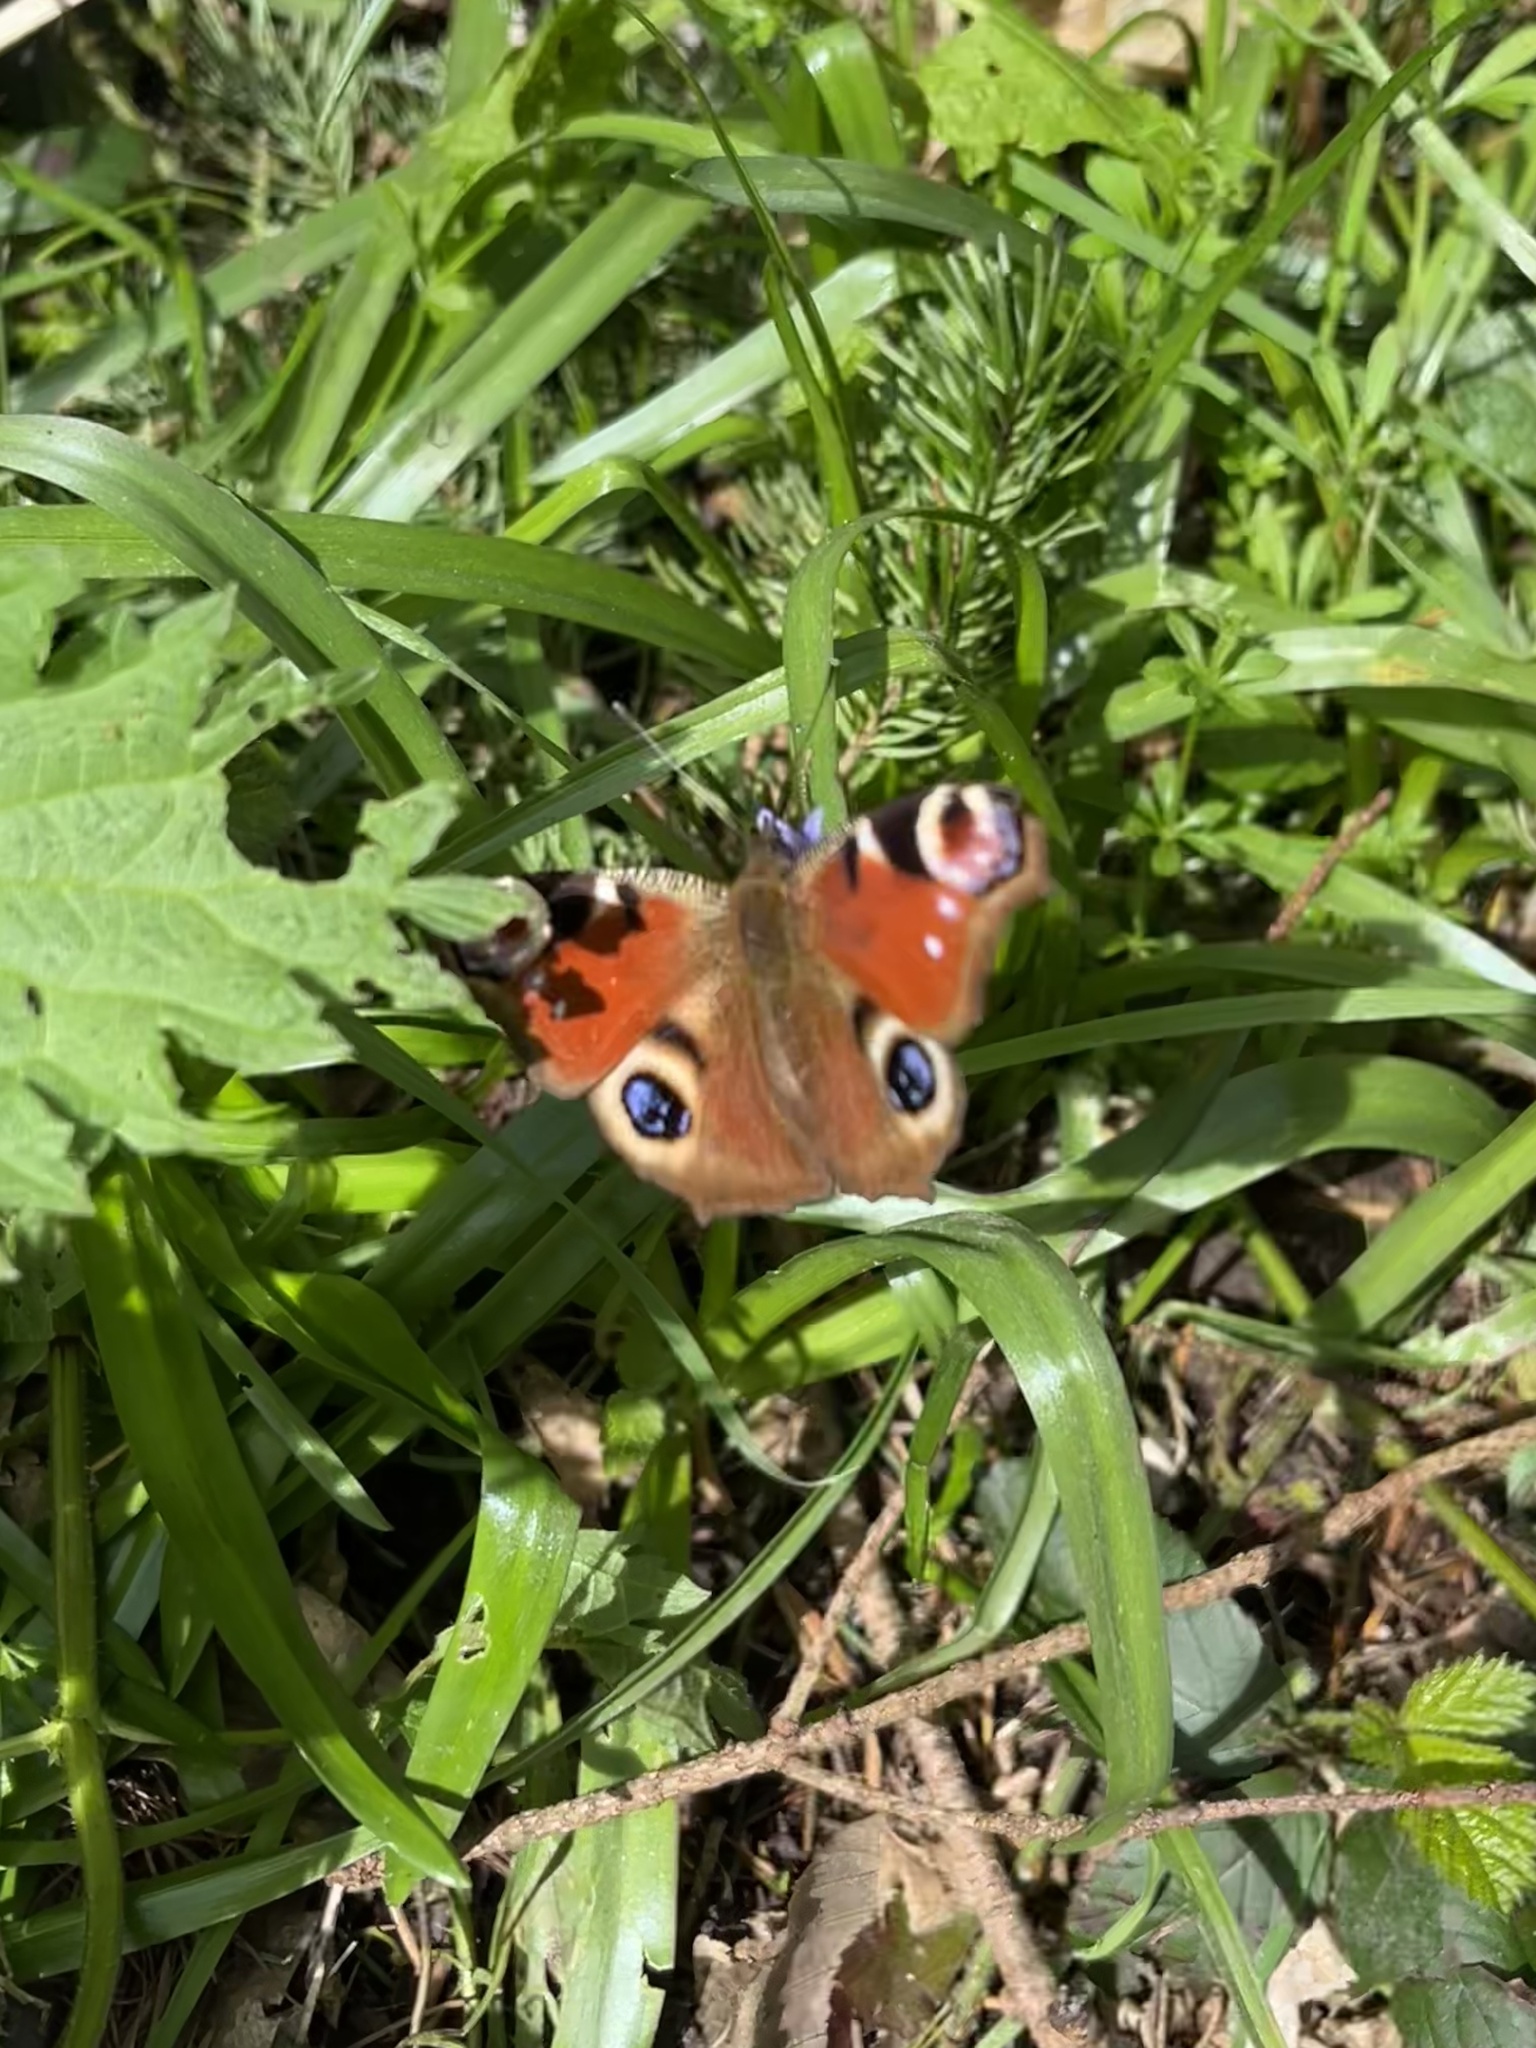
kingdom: Animalia
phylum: Arthropoda
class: Insecta
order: Lepidoptera
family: Nymphalidae
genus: Aglais
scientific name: Aglais io
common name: Peacock
